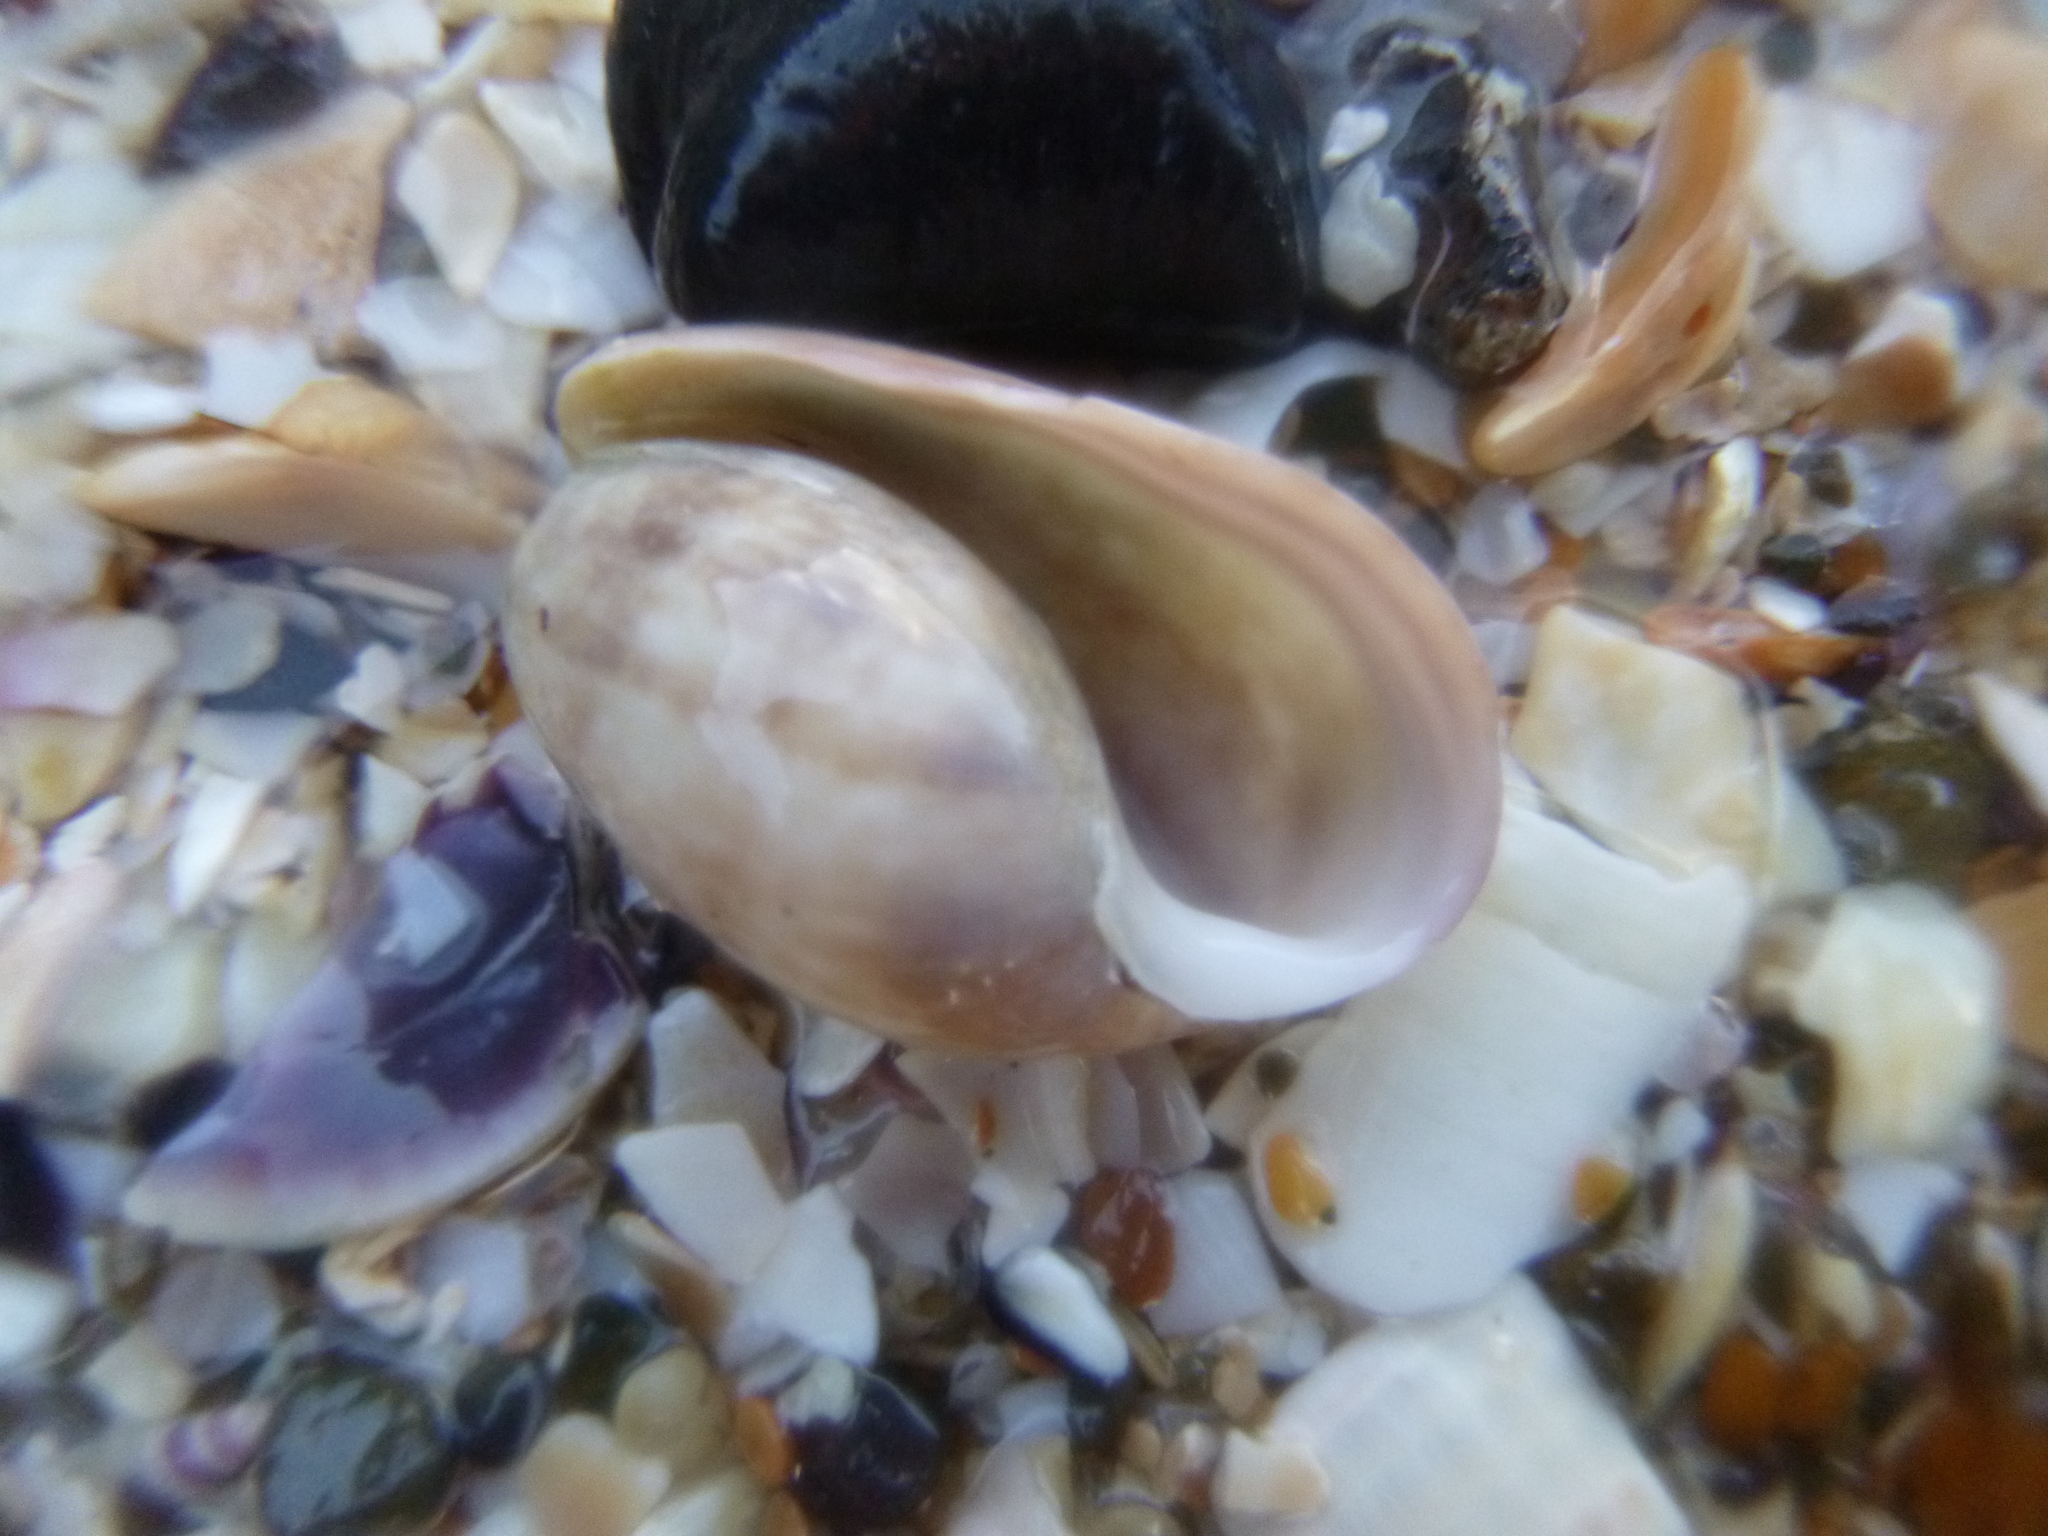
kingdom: Animalia
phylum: Mollusca
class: Gastropoda
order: Cephalaspidea
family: Bullidae
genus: Bulla
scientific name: Bulla quoyii
